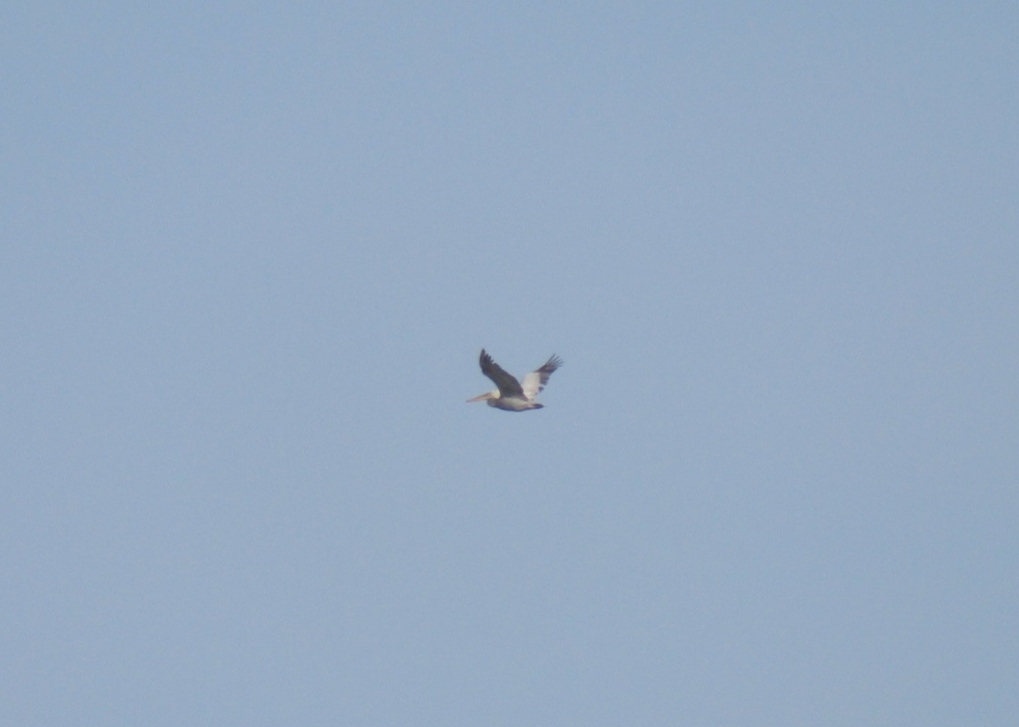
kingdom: Animalia
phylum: Chordata
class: Aves
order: Pelecaniformes
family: Pelecanidae
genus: Pelecanus
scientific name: Pelecanus crispus
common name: Dalmatian pelican
